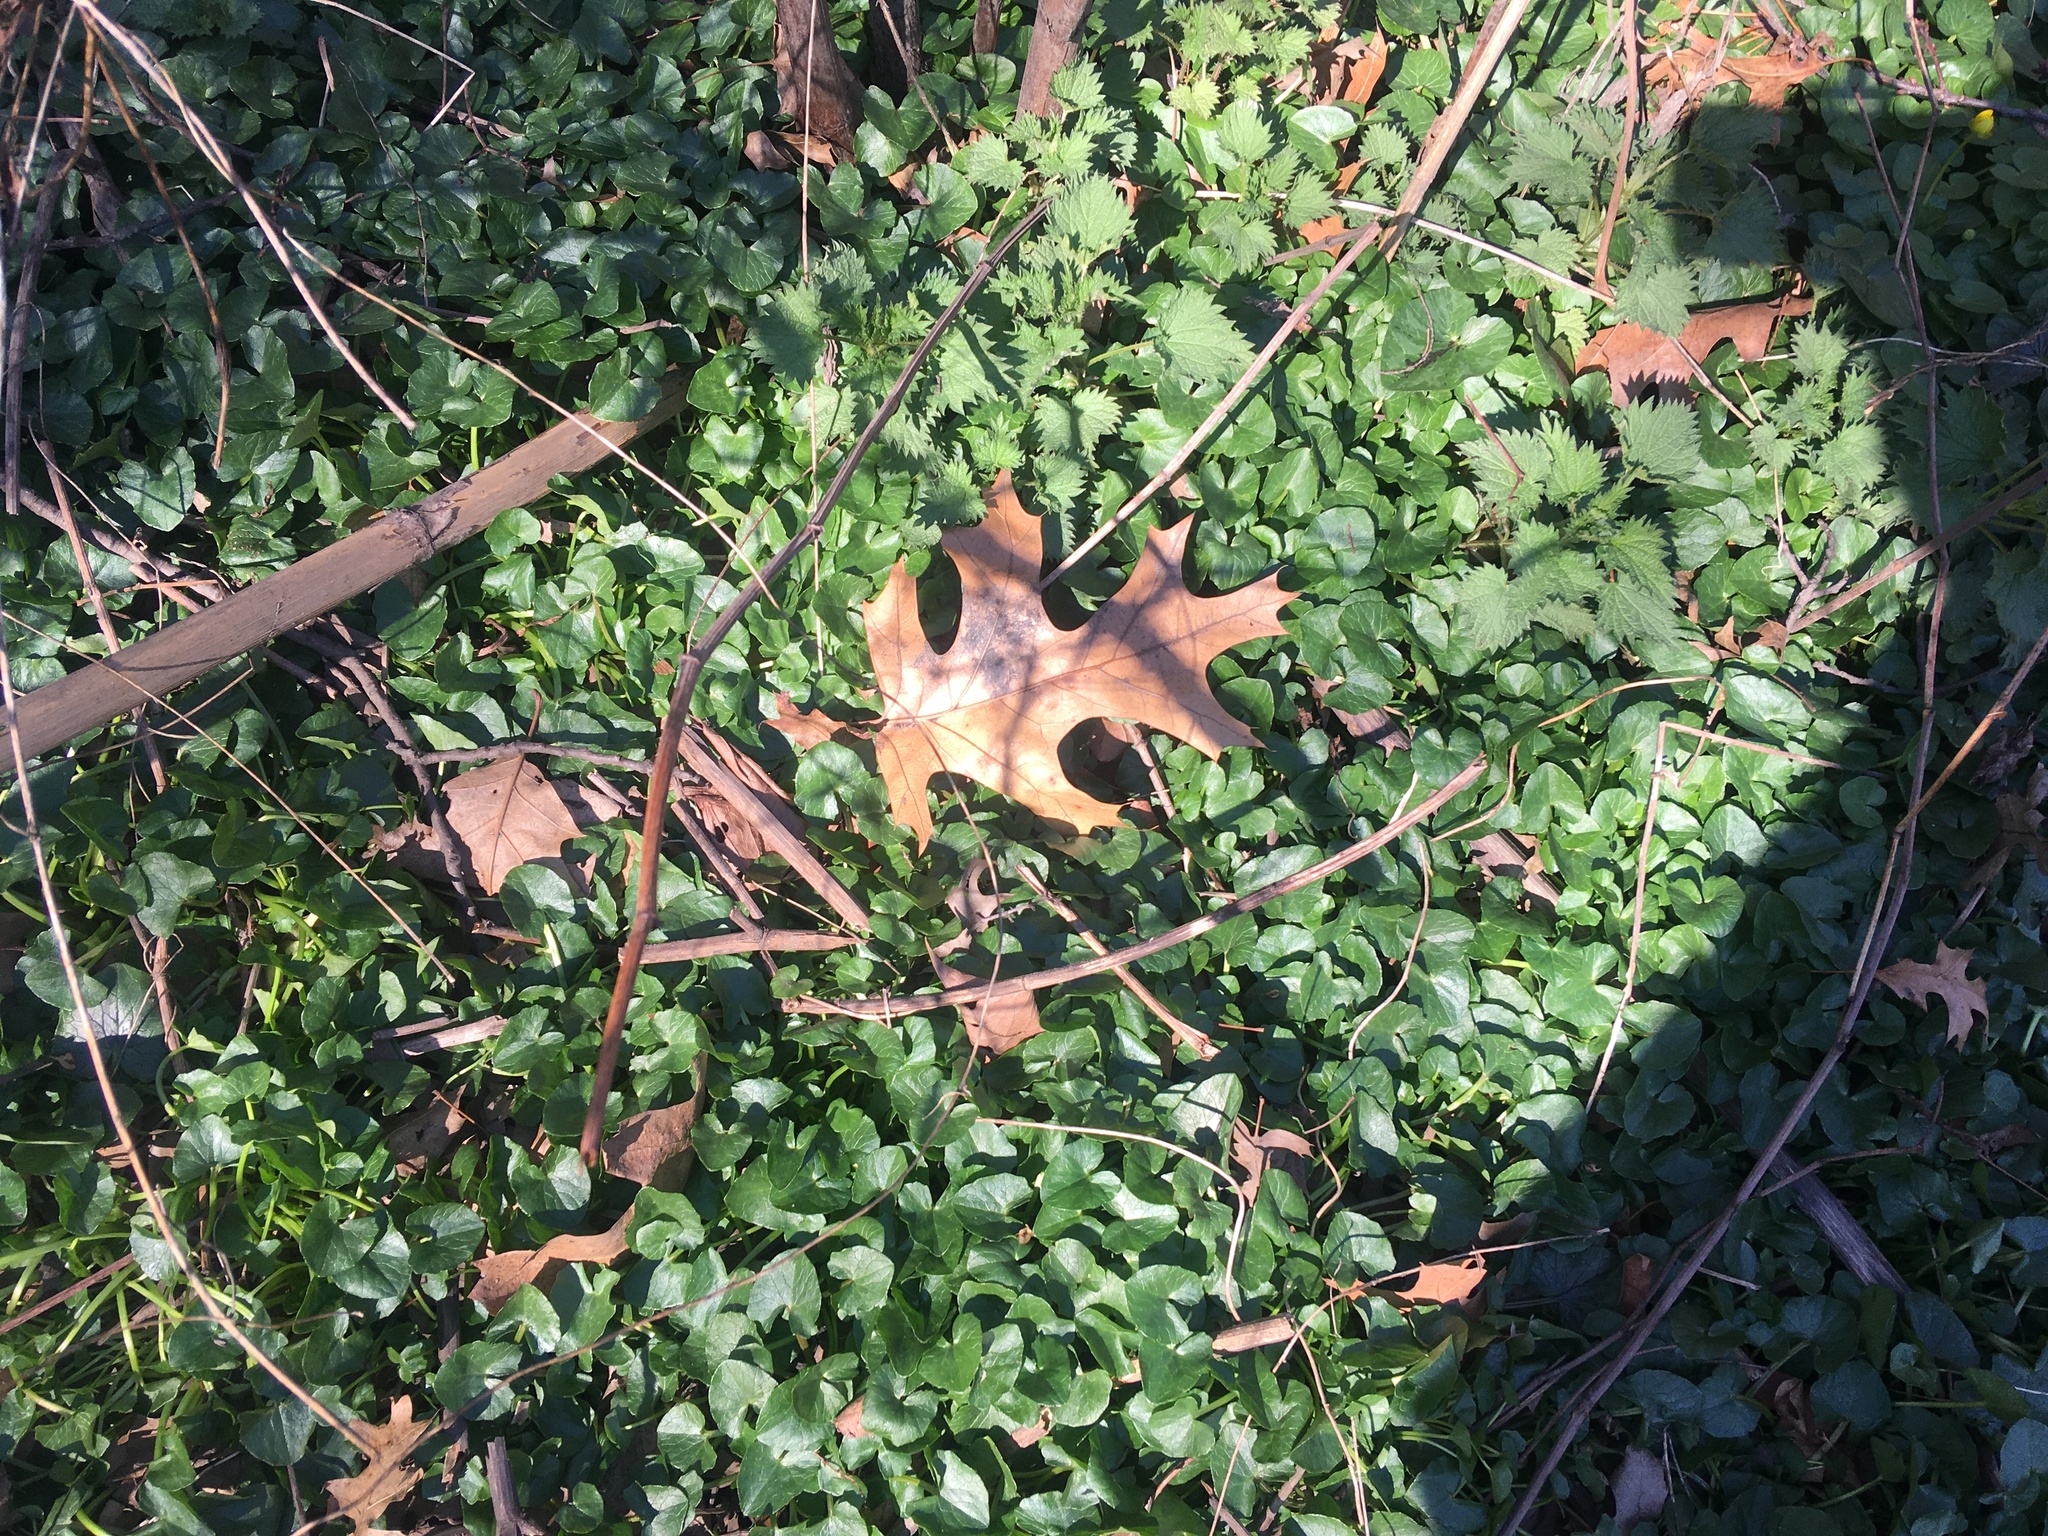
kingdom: Plantae
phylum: Tracheophyta
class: Magnoliopsida
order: Ranunculales
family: Ranunculaceae
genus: Ficaria
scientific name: Ficaria verna
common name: Lesser celandine
